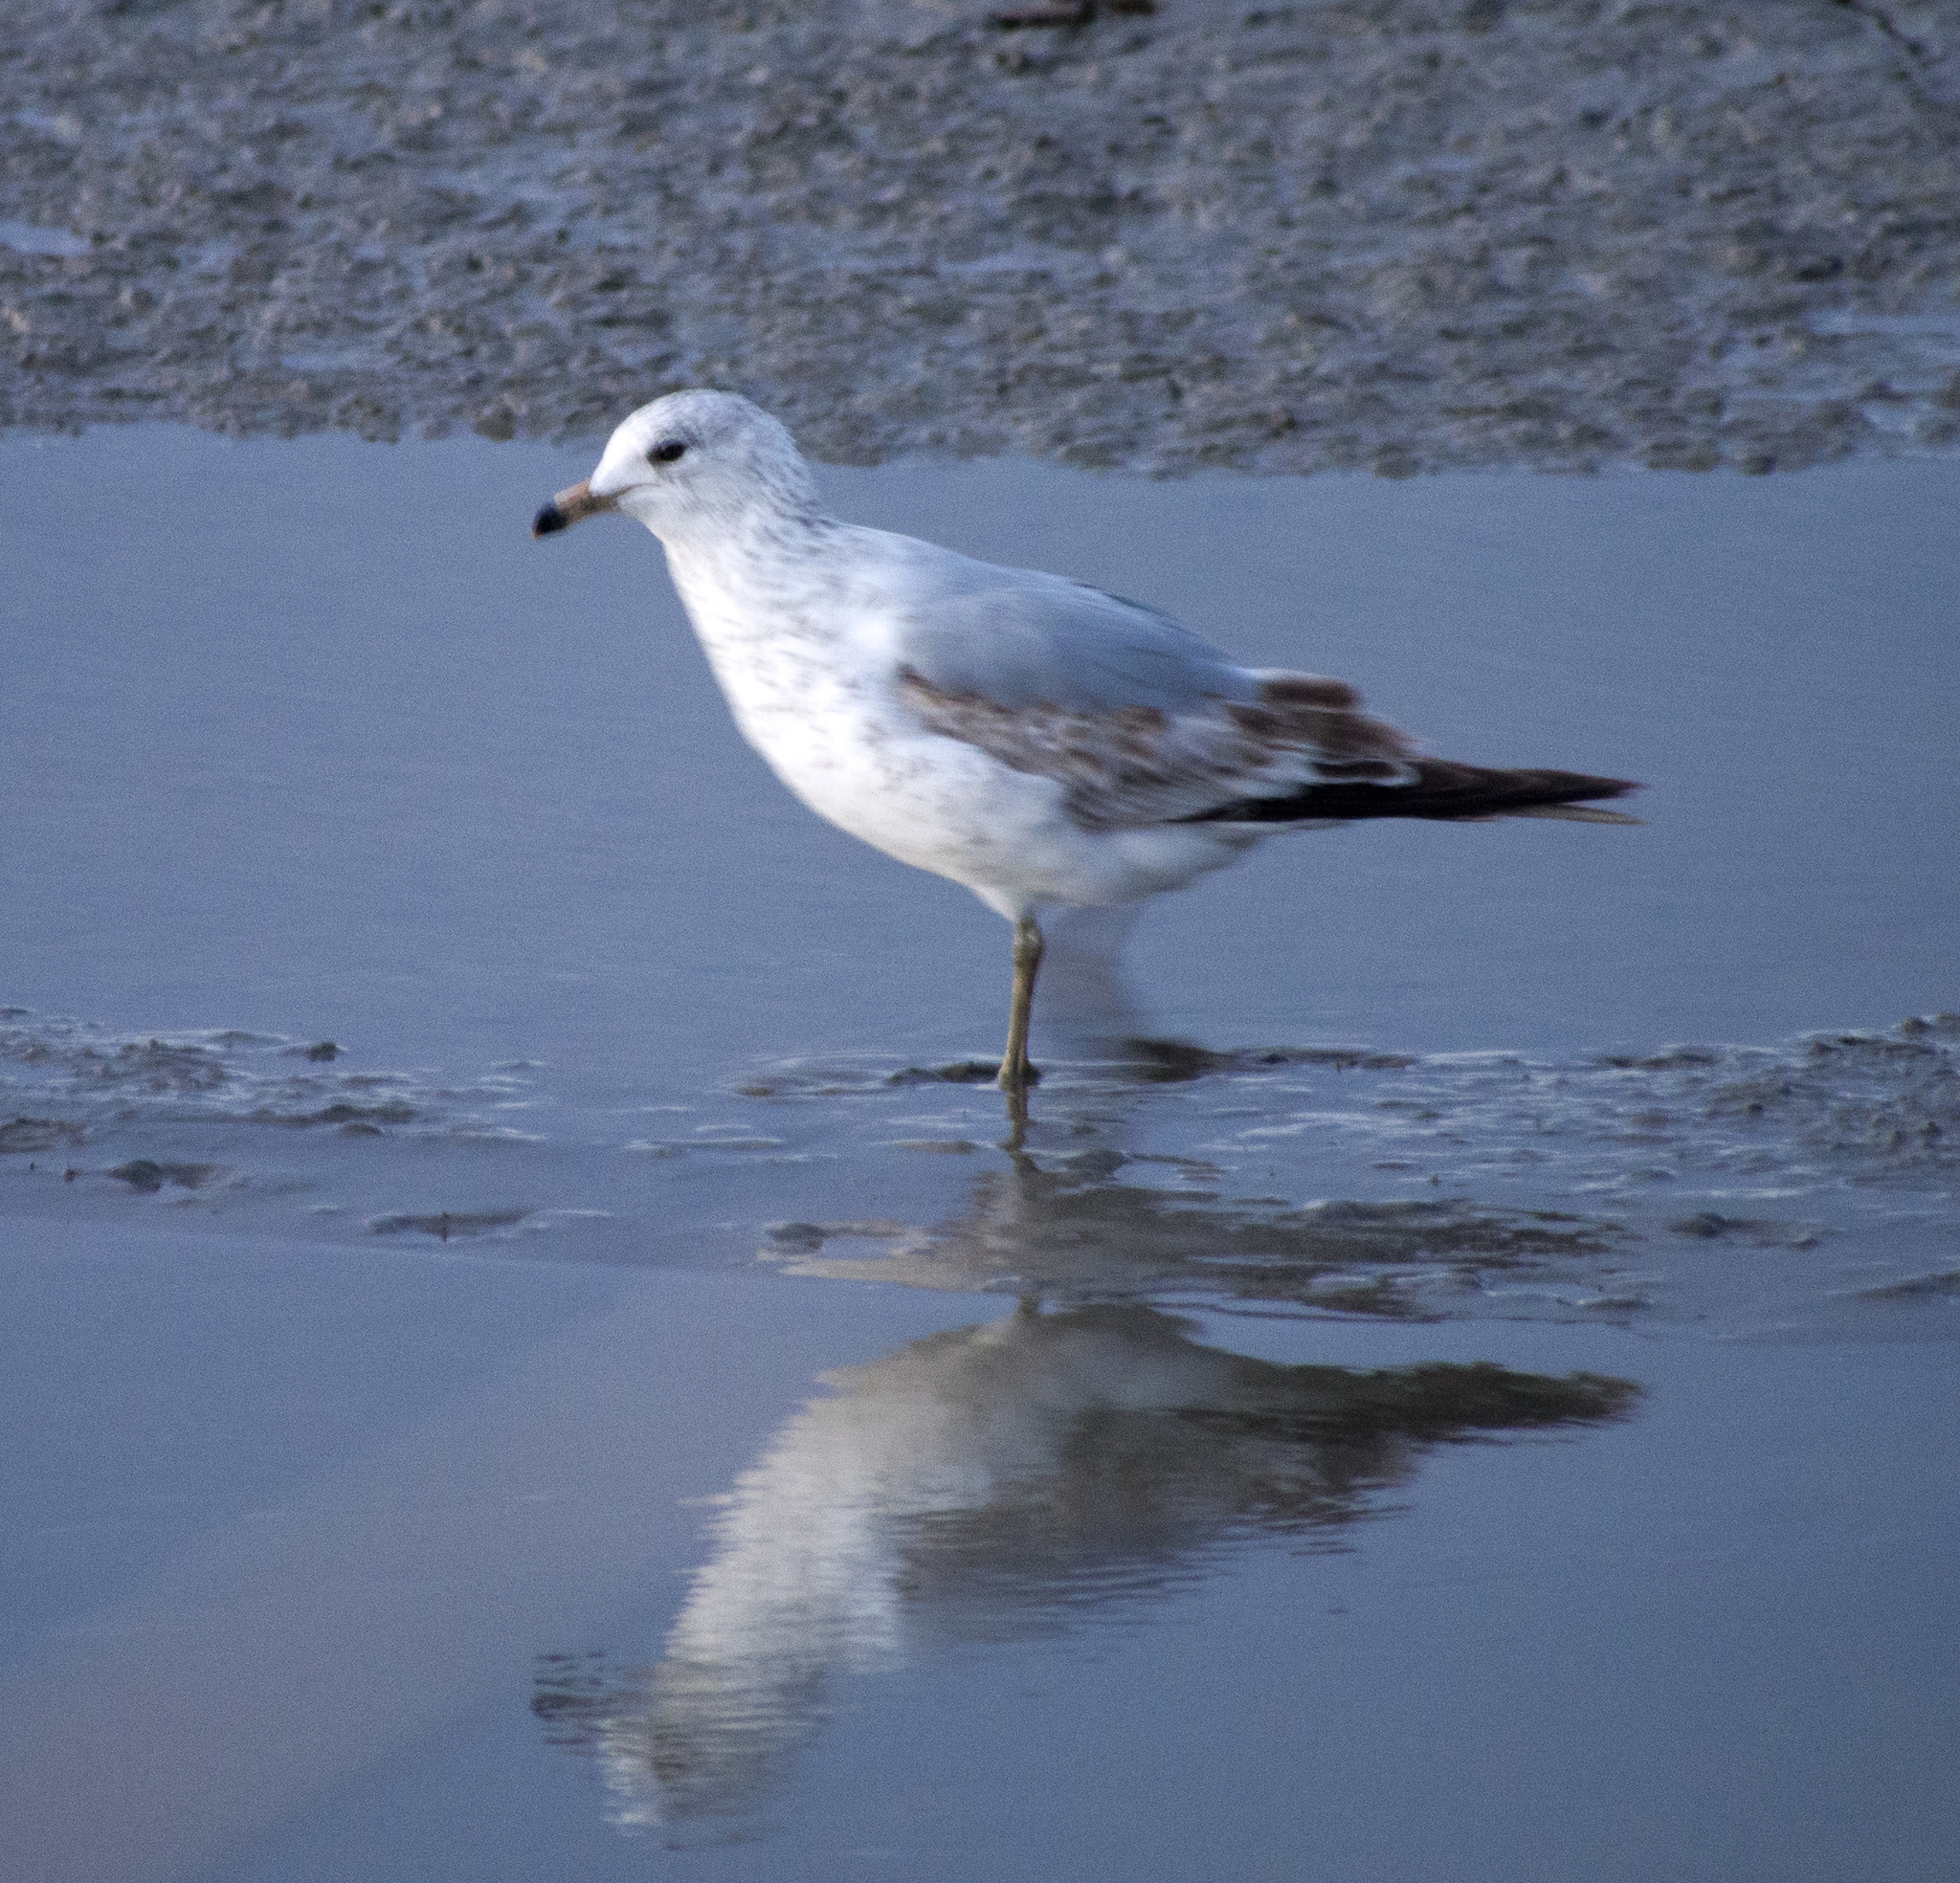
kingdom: Animalia
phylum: Chordata
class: Aves
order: Charadriiformes
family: Laridae
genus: Larus
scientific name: Larus delawarensis
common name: Ring-billed gull
